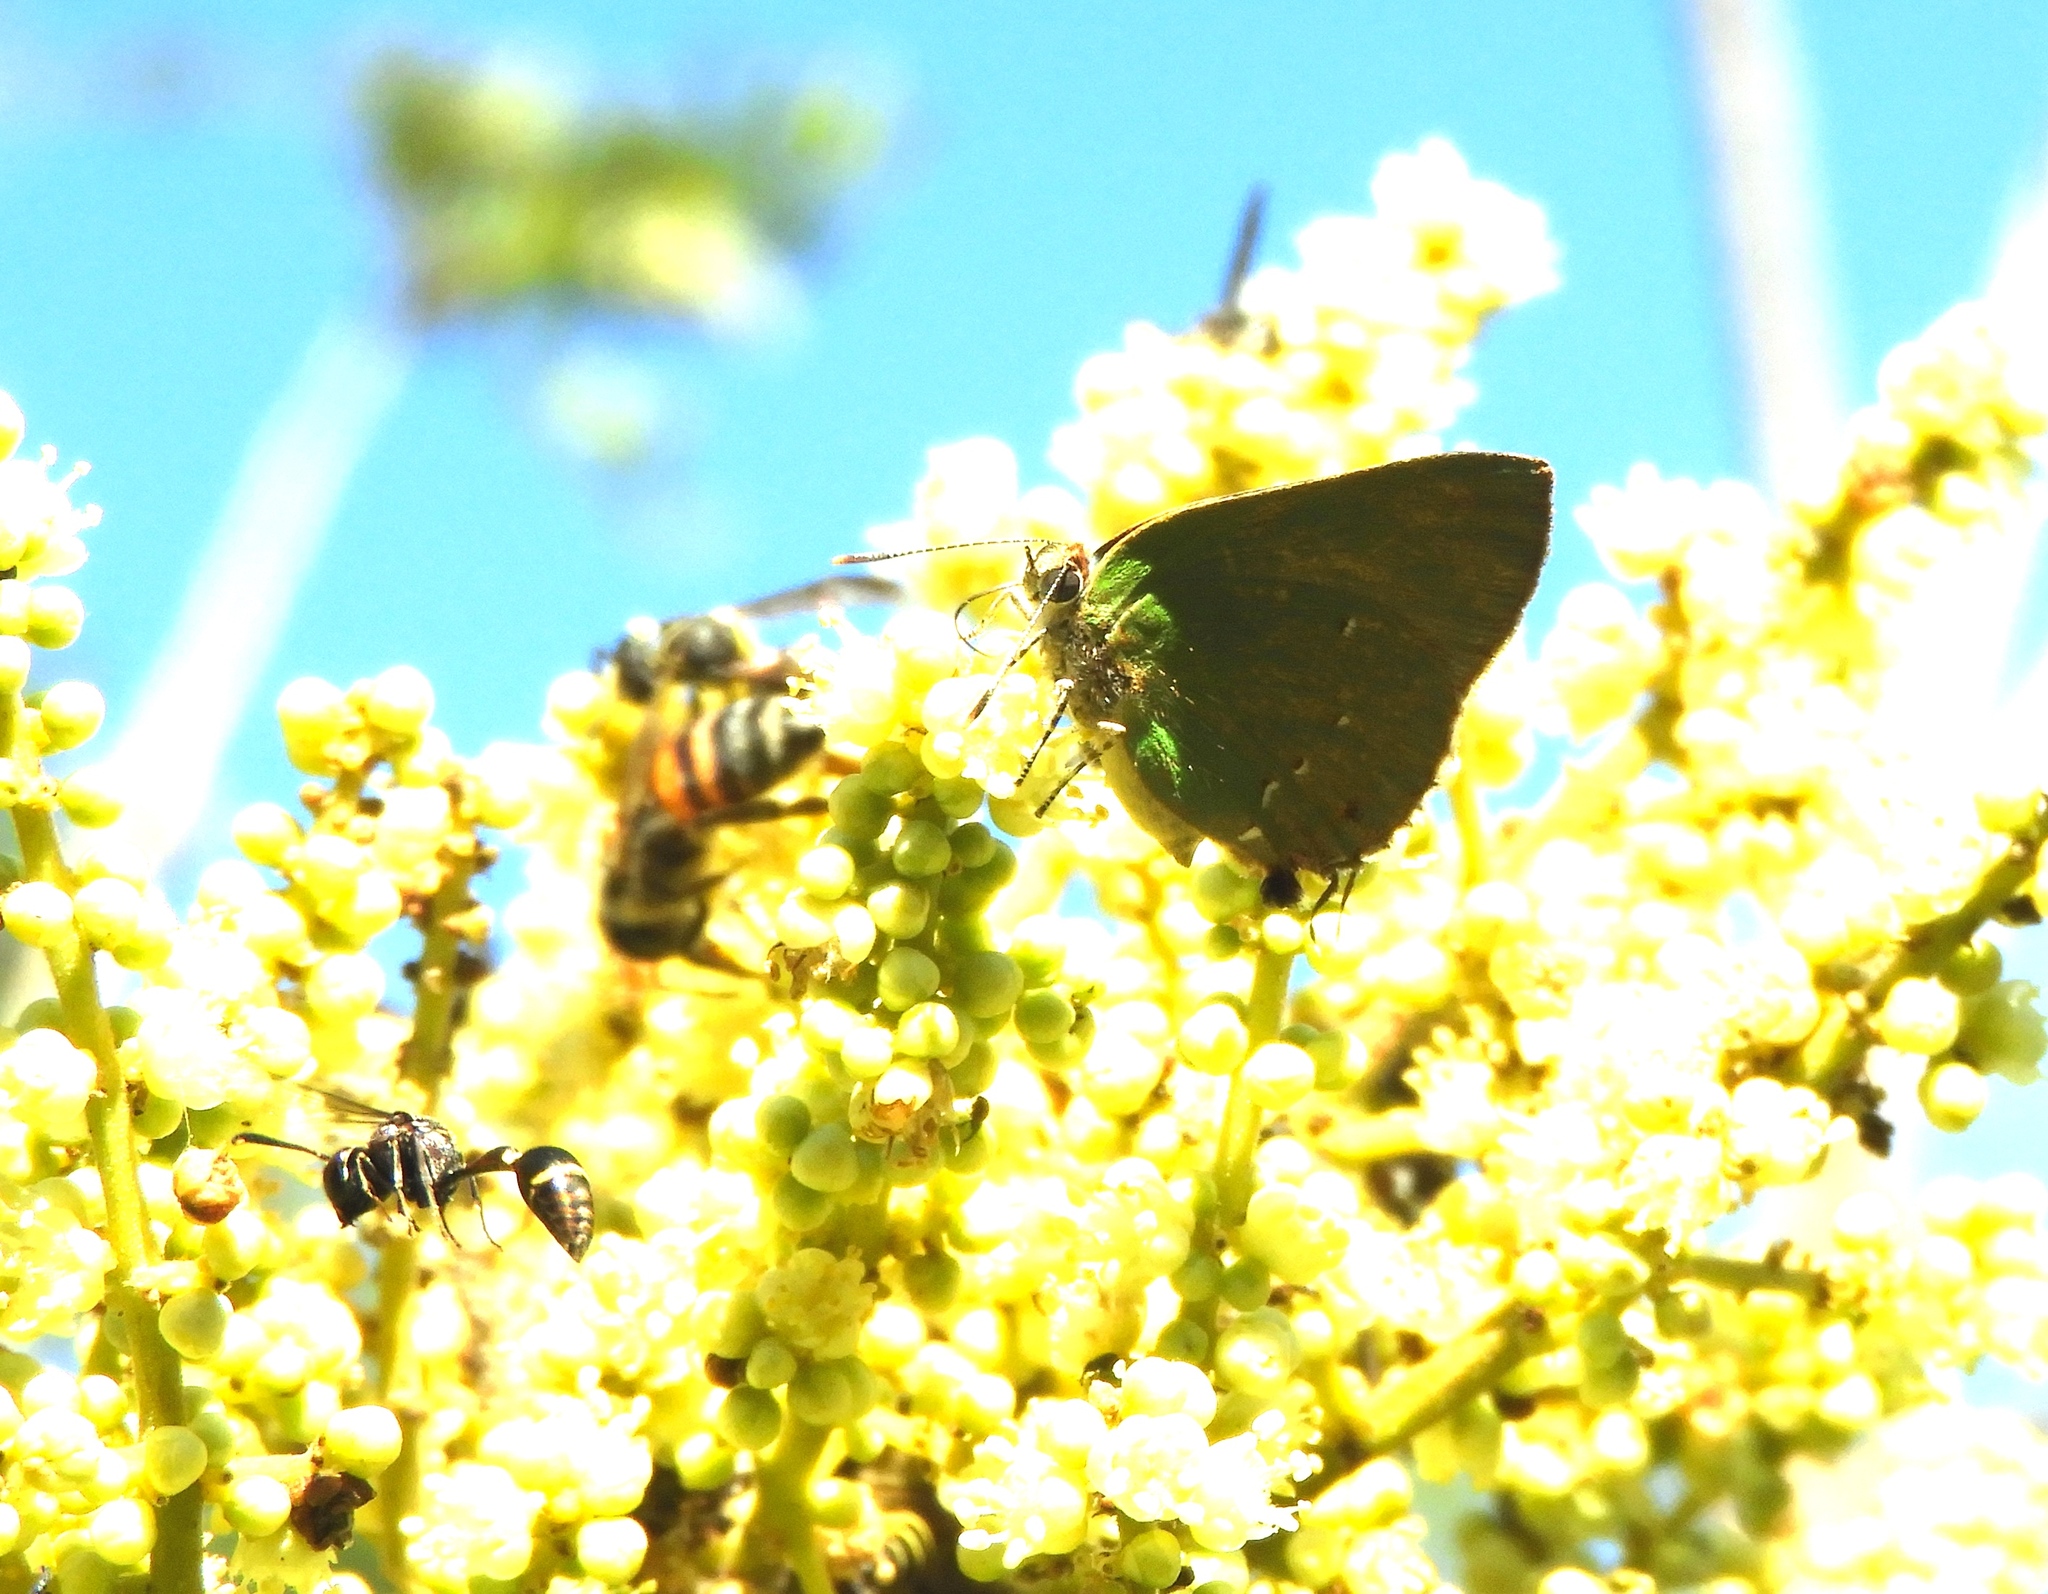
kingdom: Animalia
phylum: Arthropoda
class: Insecta
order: Lepidoptera
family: Lycaenidae
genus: Cyanophrys
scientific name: Cyanophrys
